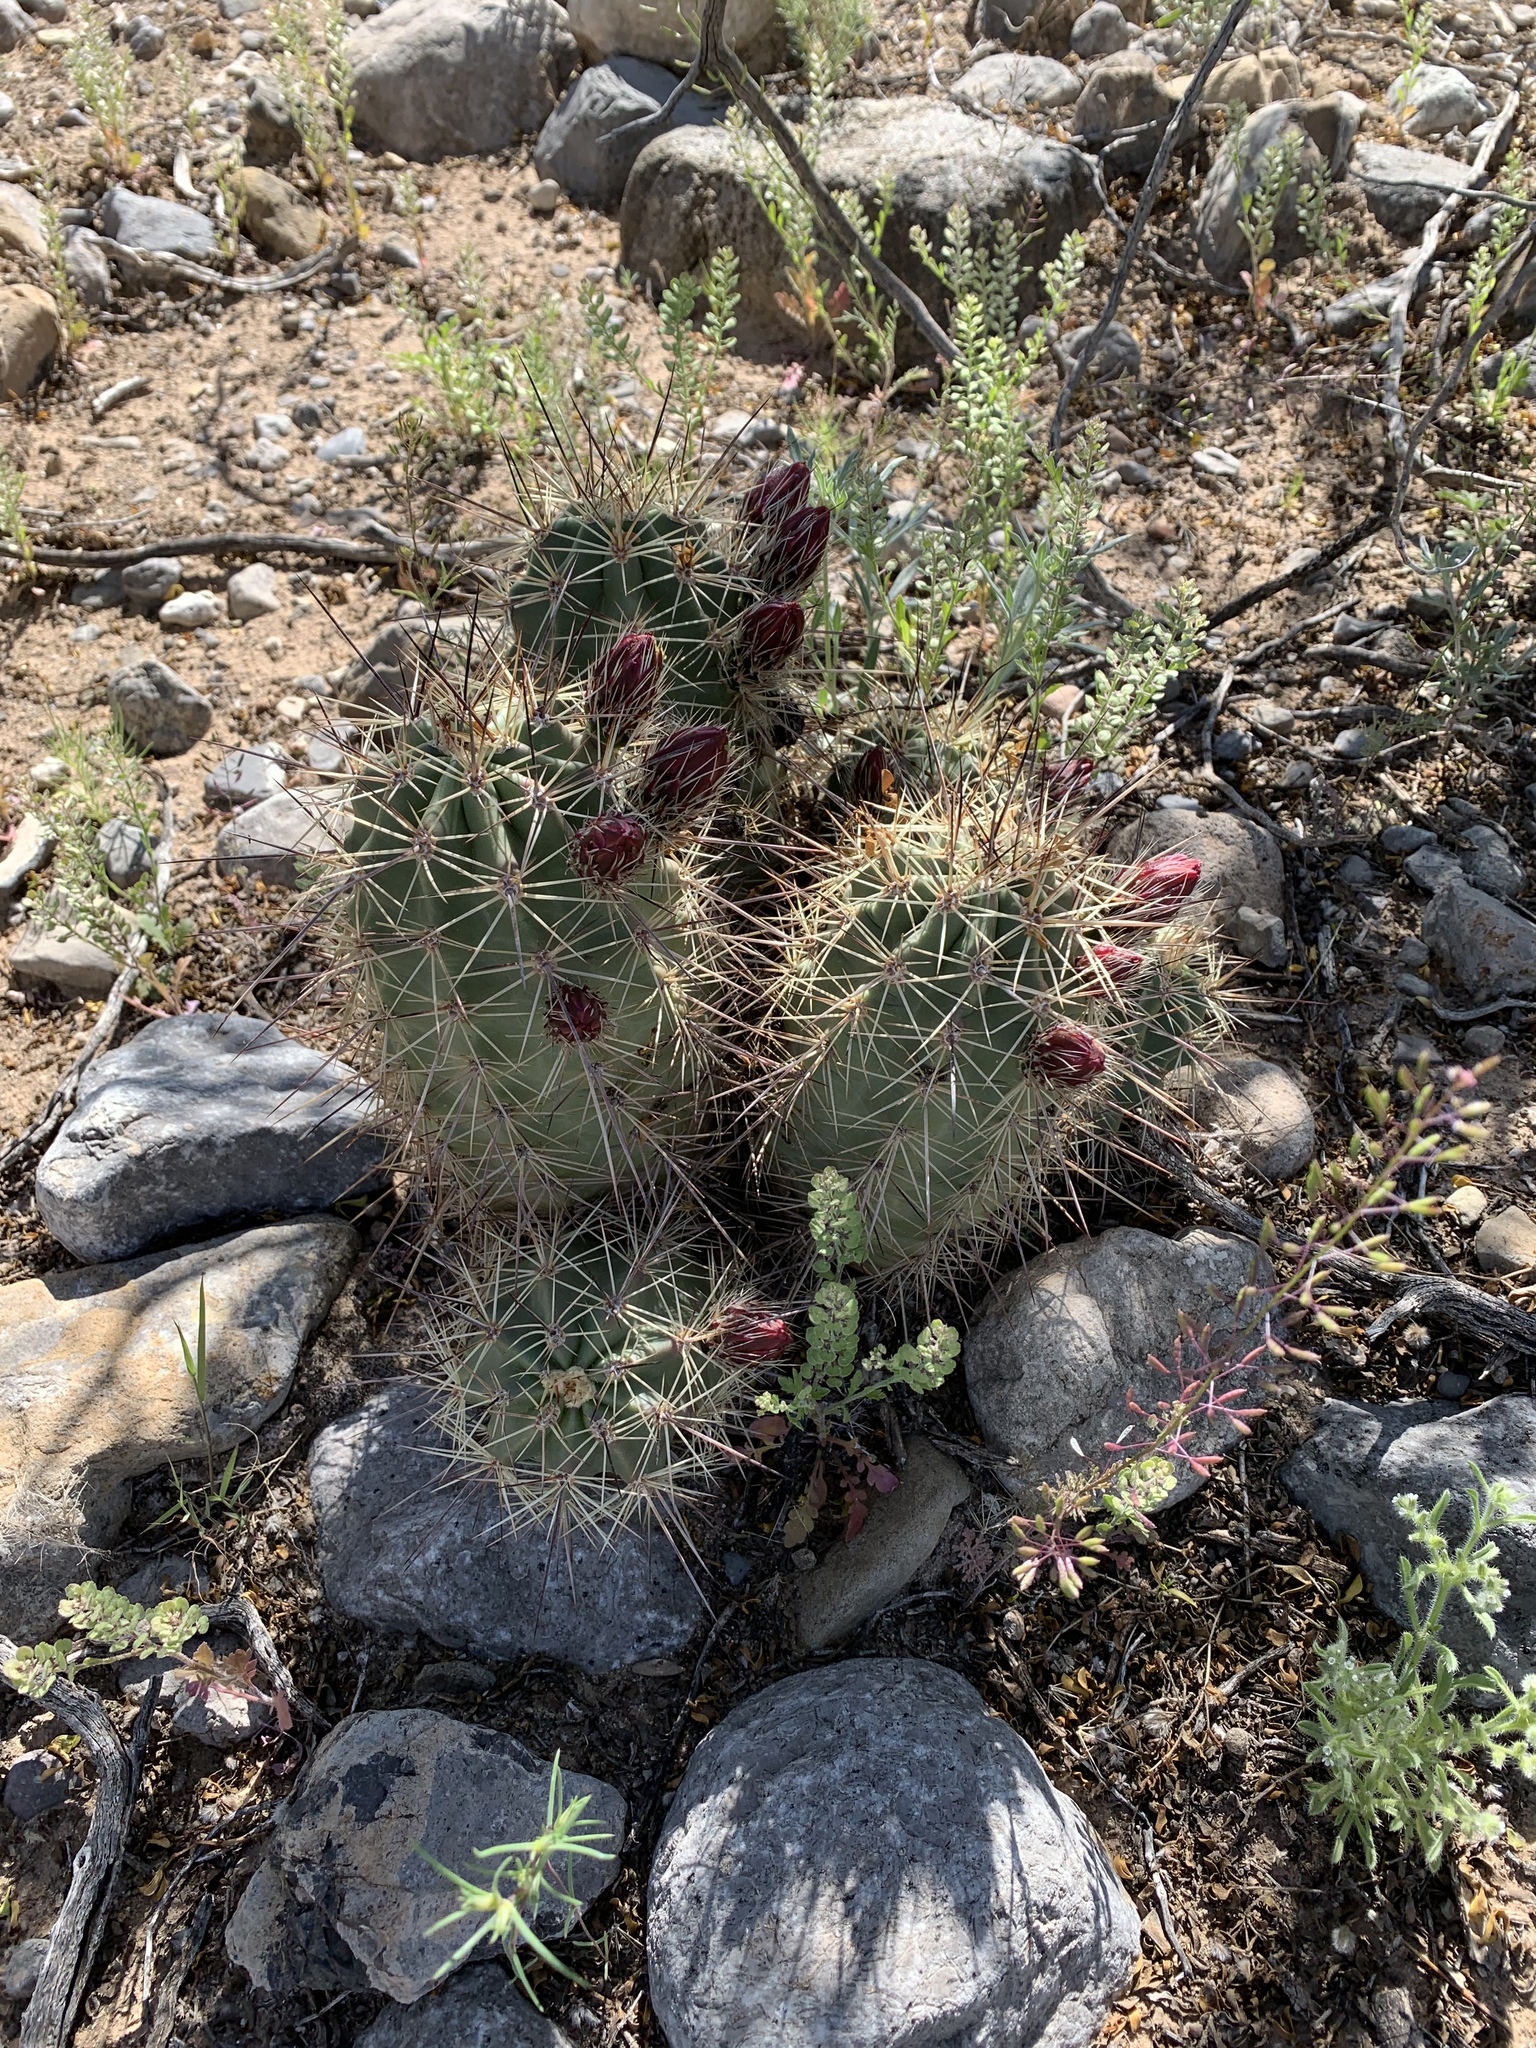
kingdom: Plantae
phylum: Tracheophyta
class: Magnoliopsida
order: Caryophyllales
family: Cactaceae
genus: Echinocereus
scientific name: Echinocereus coccineus
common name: Scarlet hedgehog cactus
